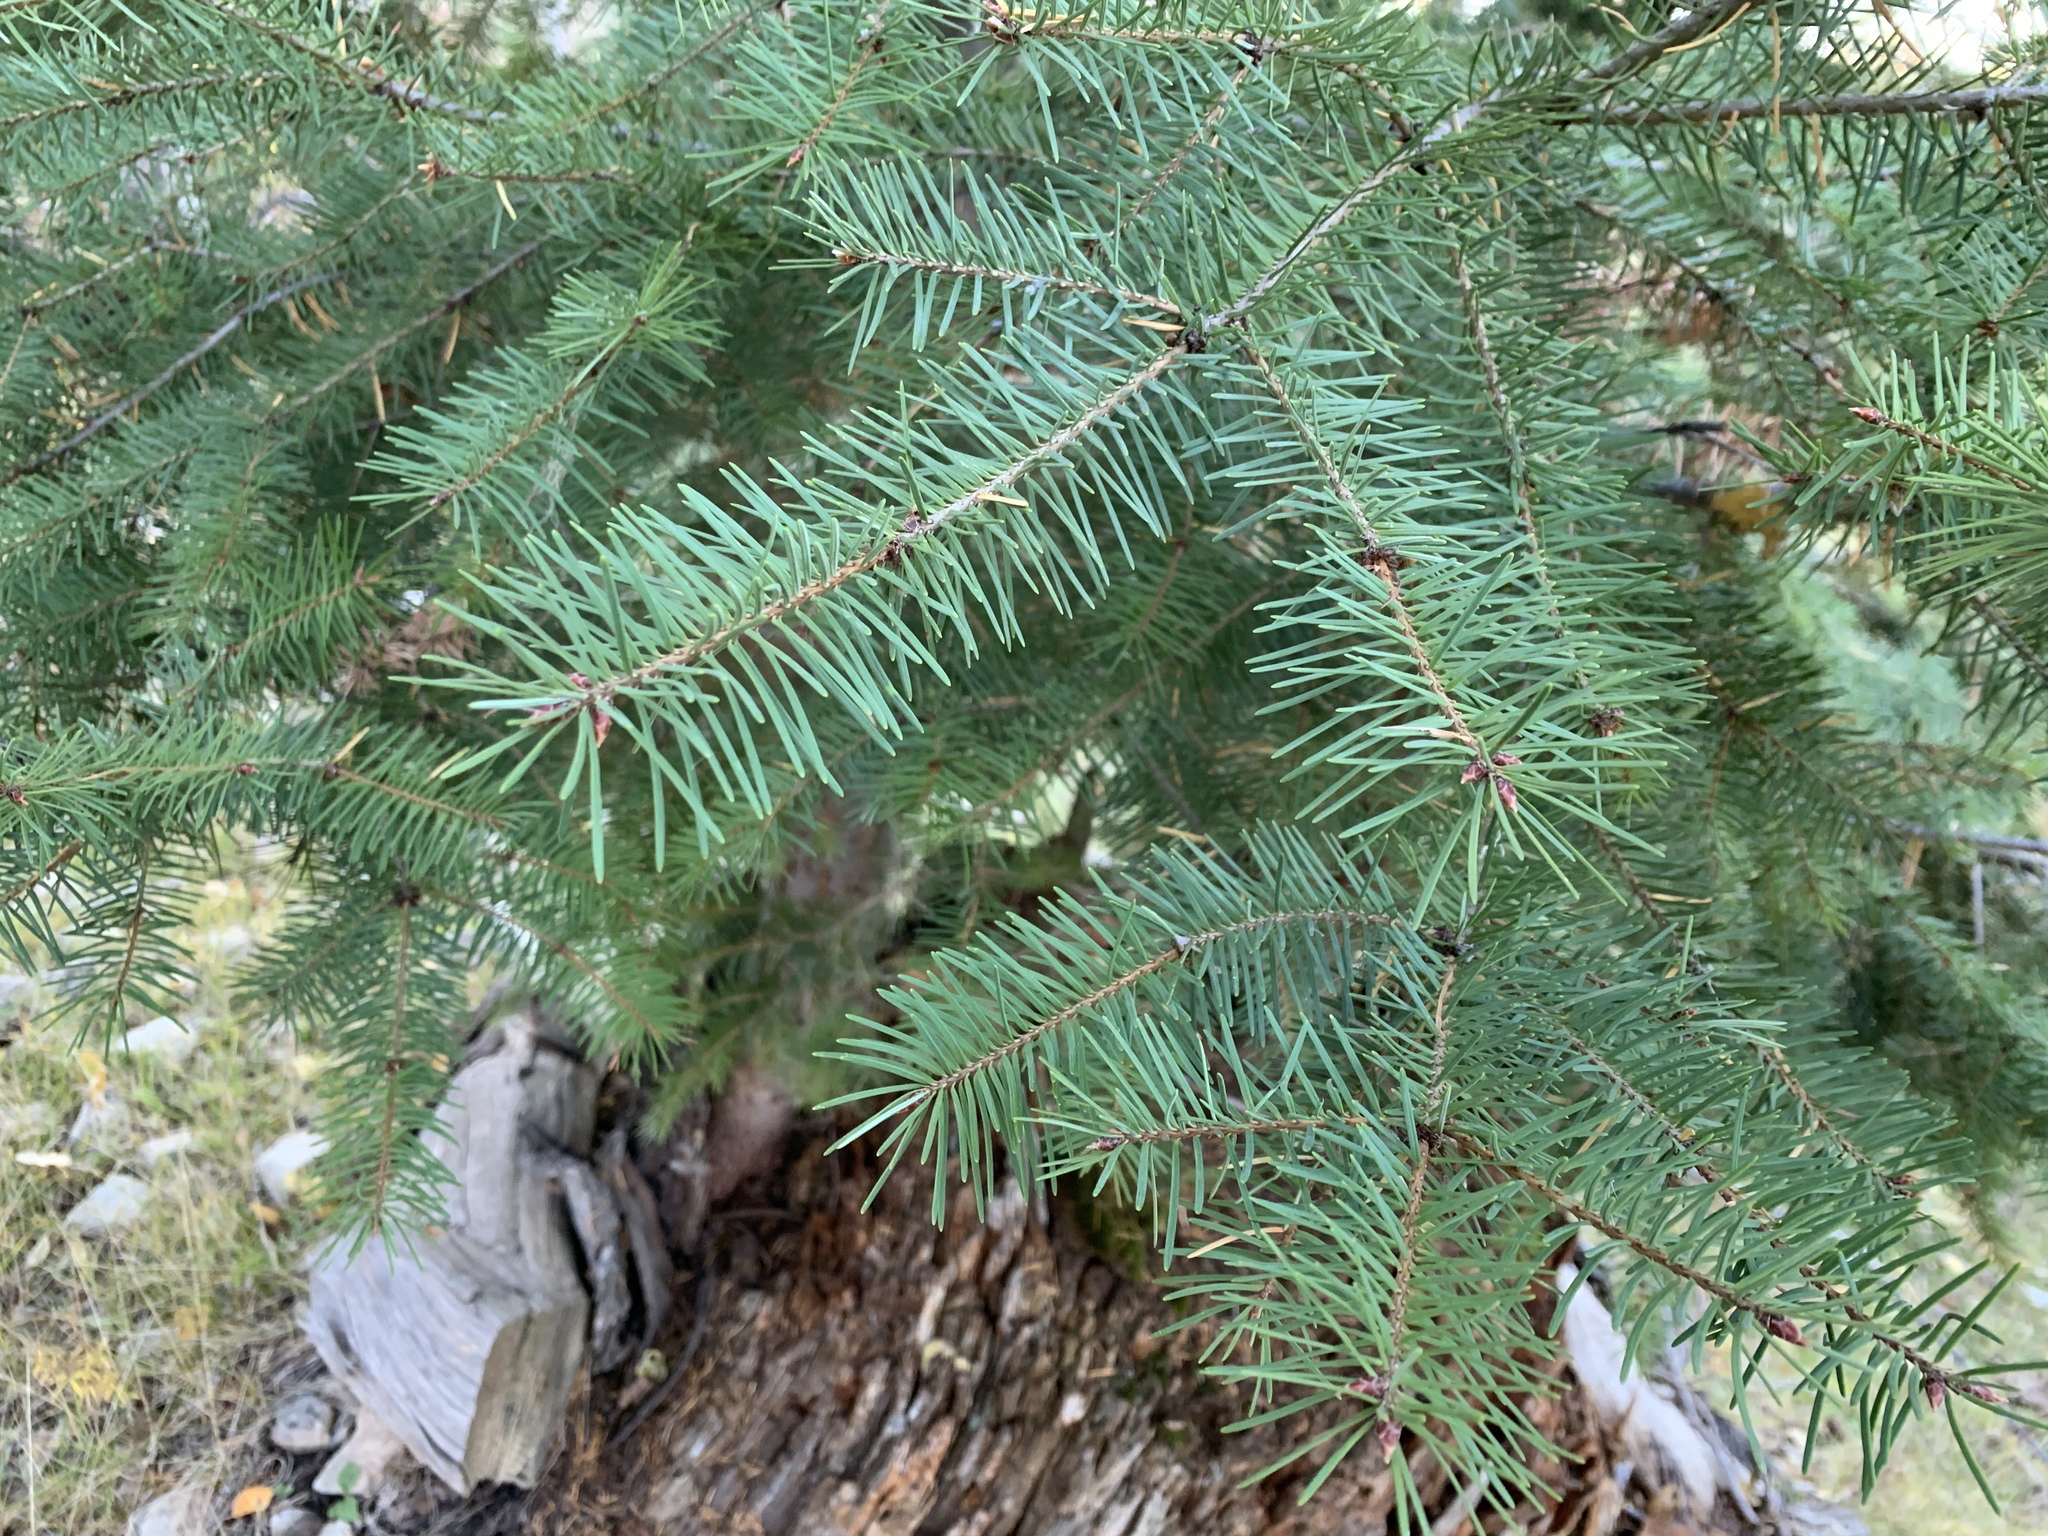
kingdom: Plantae
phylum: Tracheophyta
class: Pinopsida
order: Pinales
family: Pinaceae
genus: Pseudotsuga
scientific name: Pseudotsuga menziesii
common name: Douglas fir
